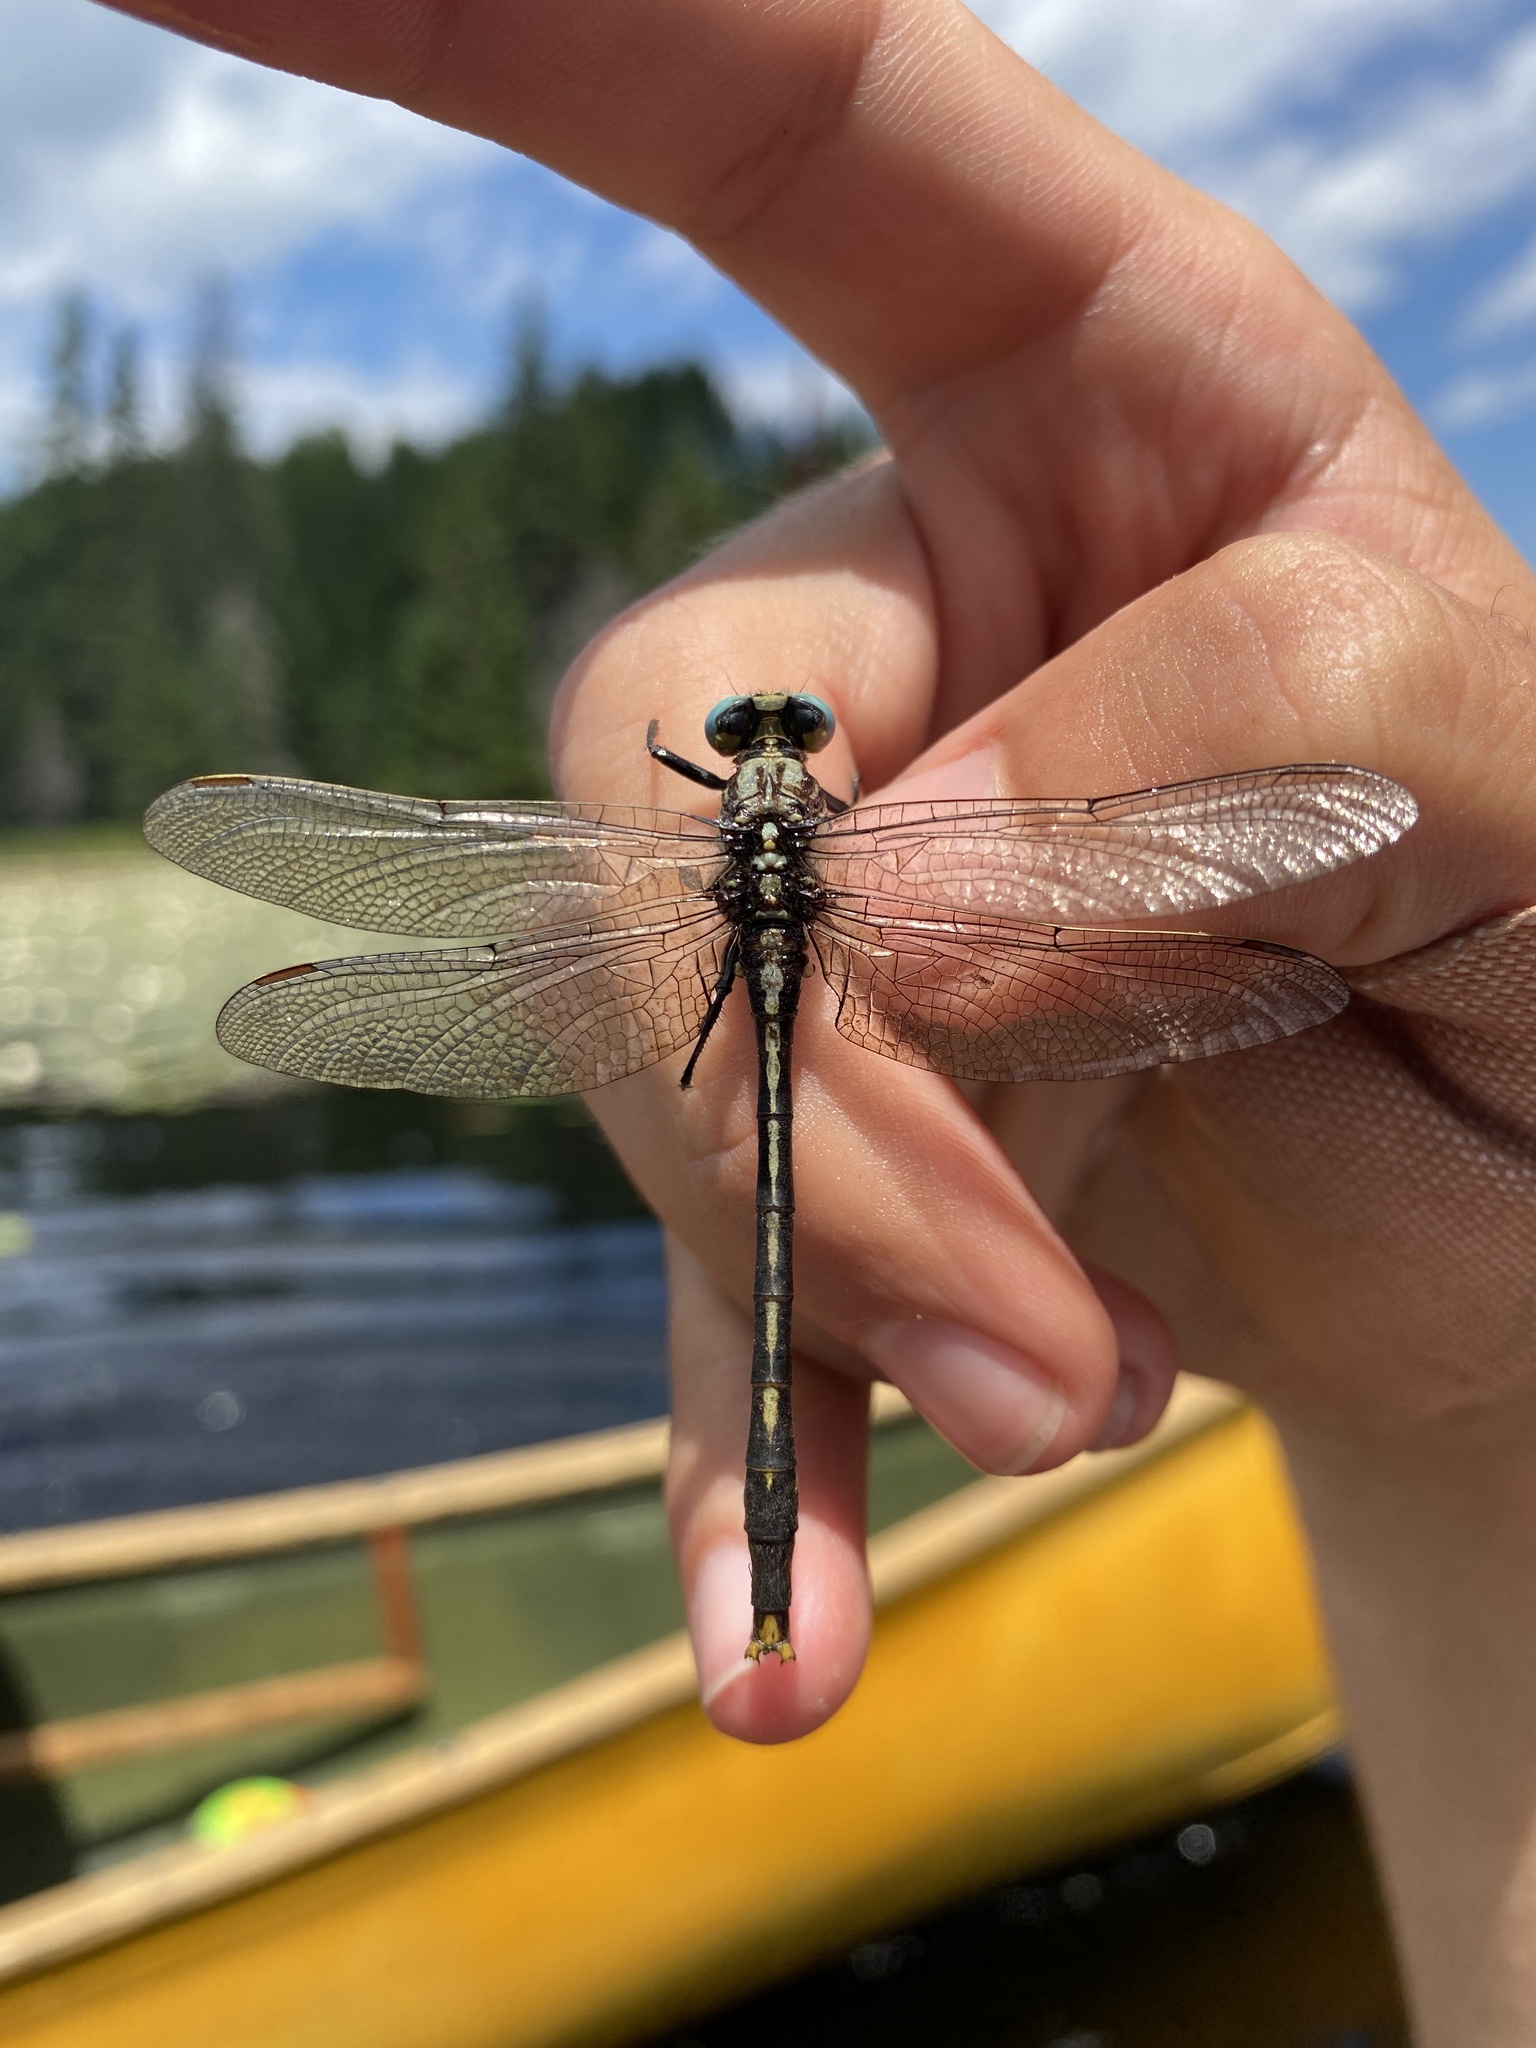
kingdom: Animalia
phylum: Arthropoda
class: Insecta
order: Odonata
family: Gomphidae
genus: Arigomphus
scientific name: Arigomphus furcifer
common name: Lilypad clubtail
